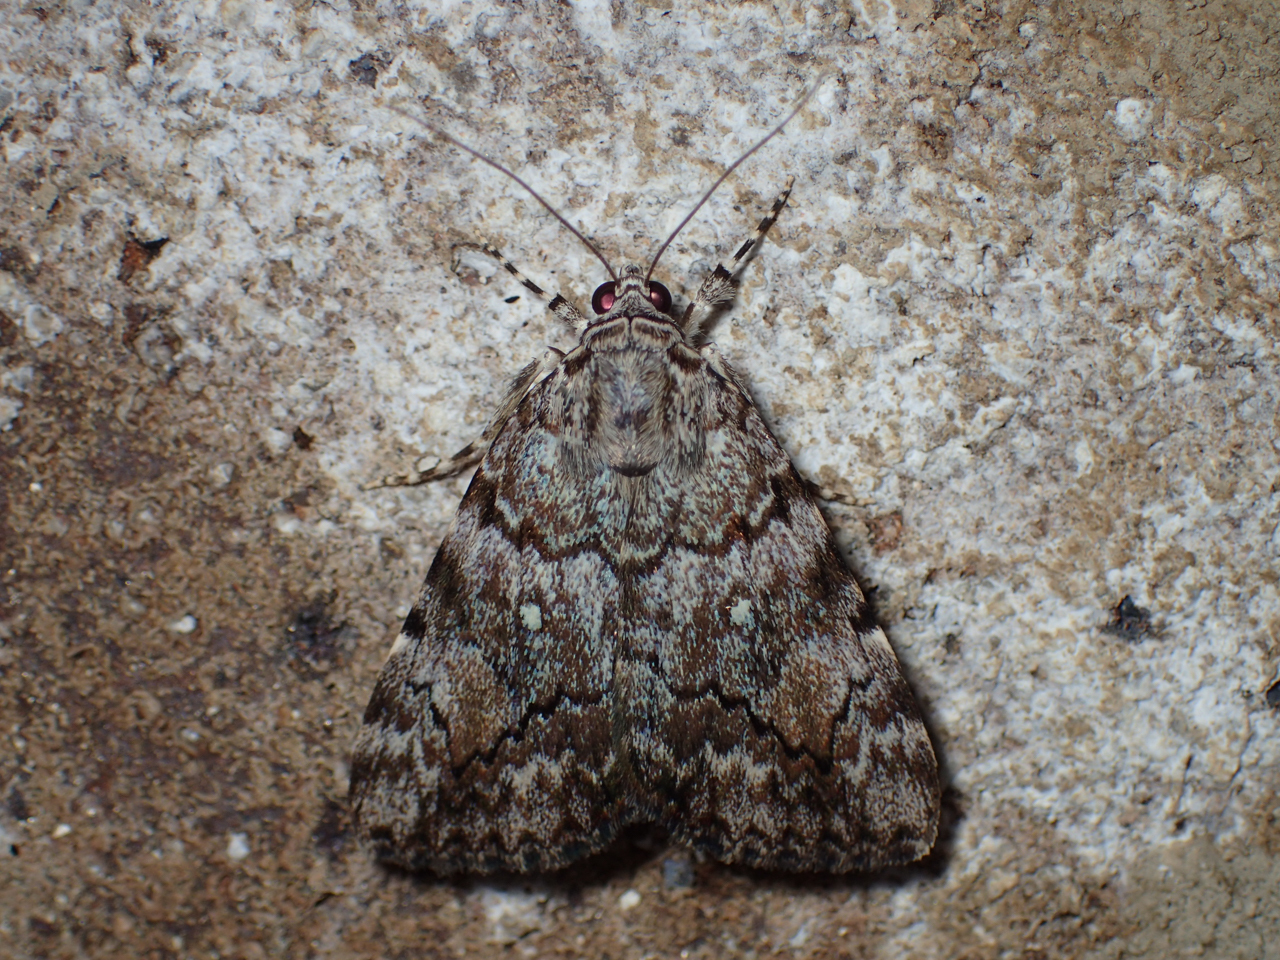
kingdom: Animalia
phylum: Arthropoda
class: Insecta
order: Lepidoptera
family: Erebidae
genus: Catocala
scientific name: Catocala lineella
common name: Little lined underwing
